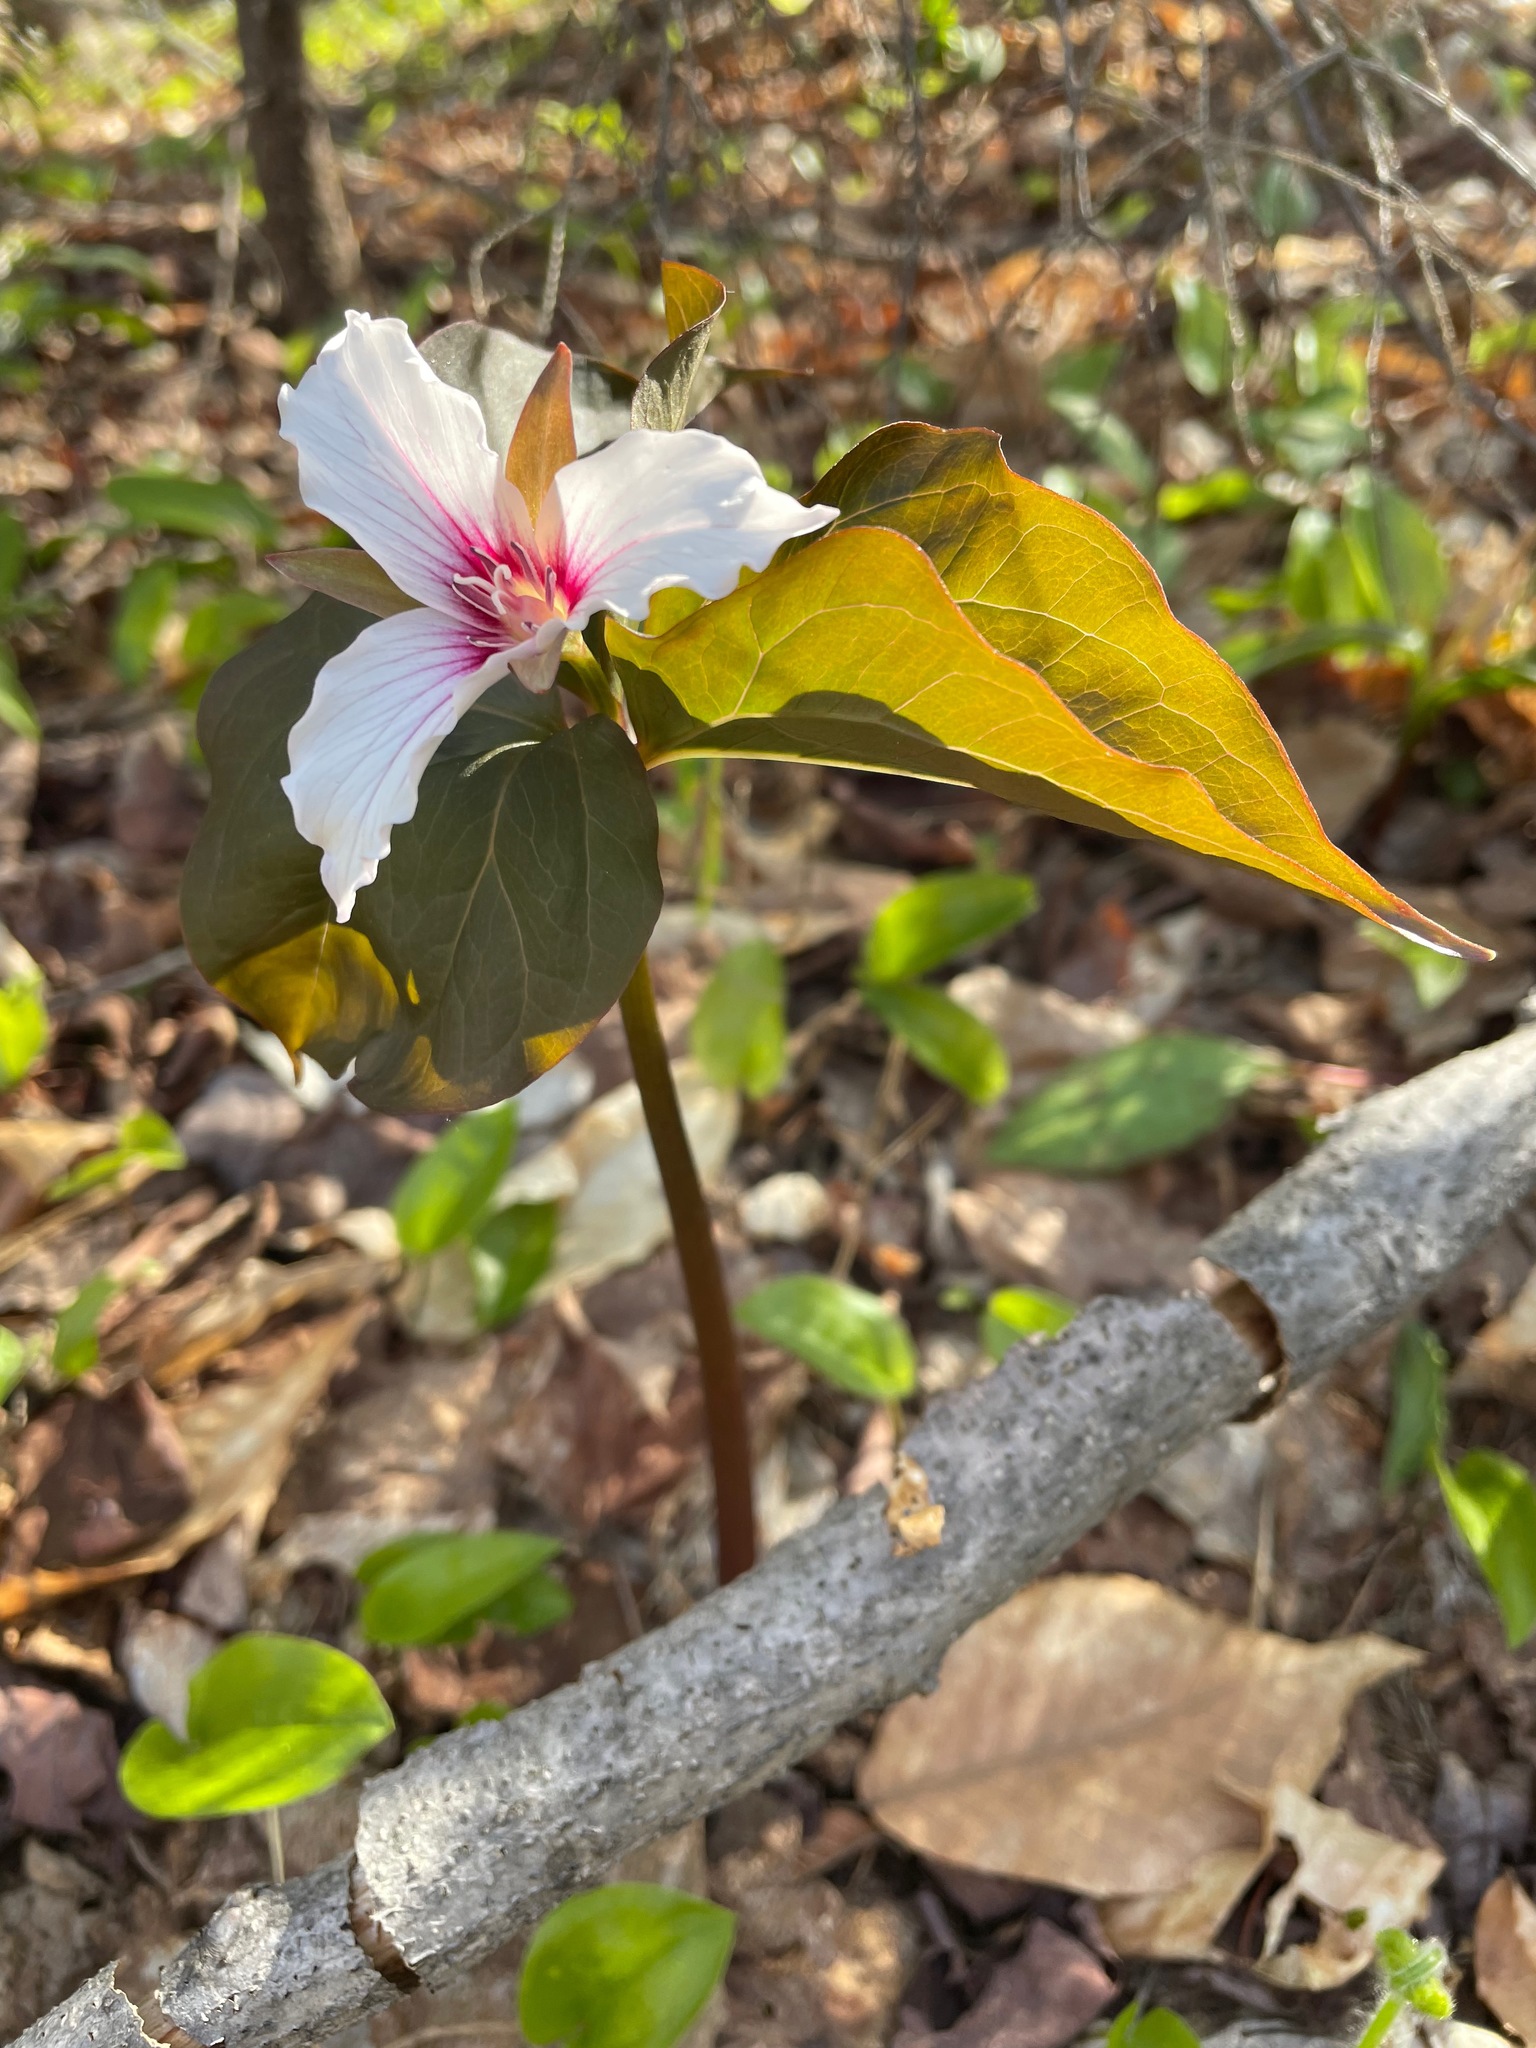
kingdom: Plantae
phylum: Tracheophyta
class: Liliopsida
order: Liliales
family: Melanthiaceae
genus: Trillium
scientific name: Trillium undulatum
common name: Paint trillium
